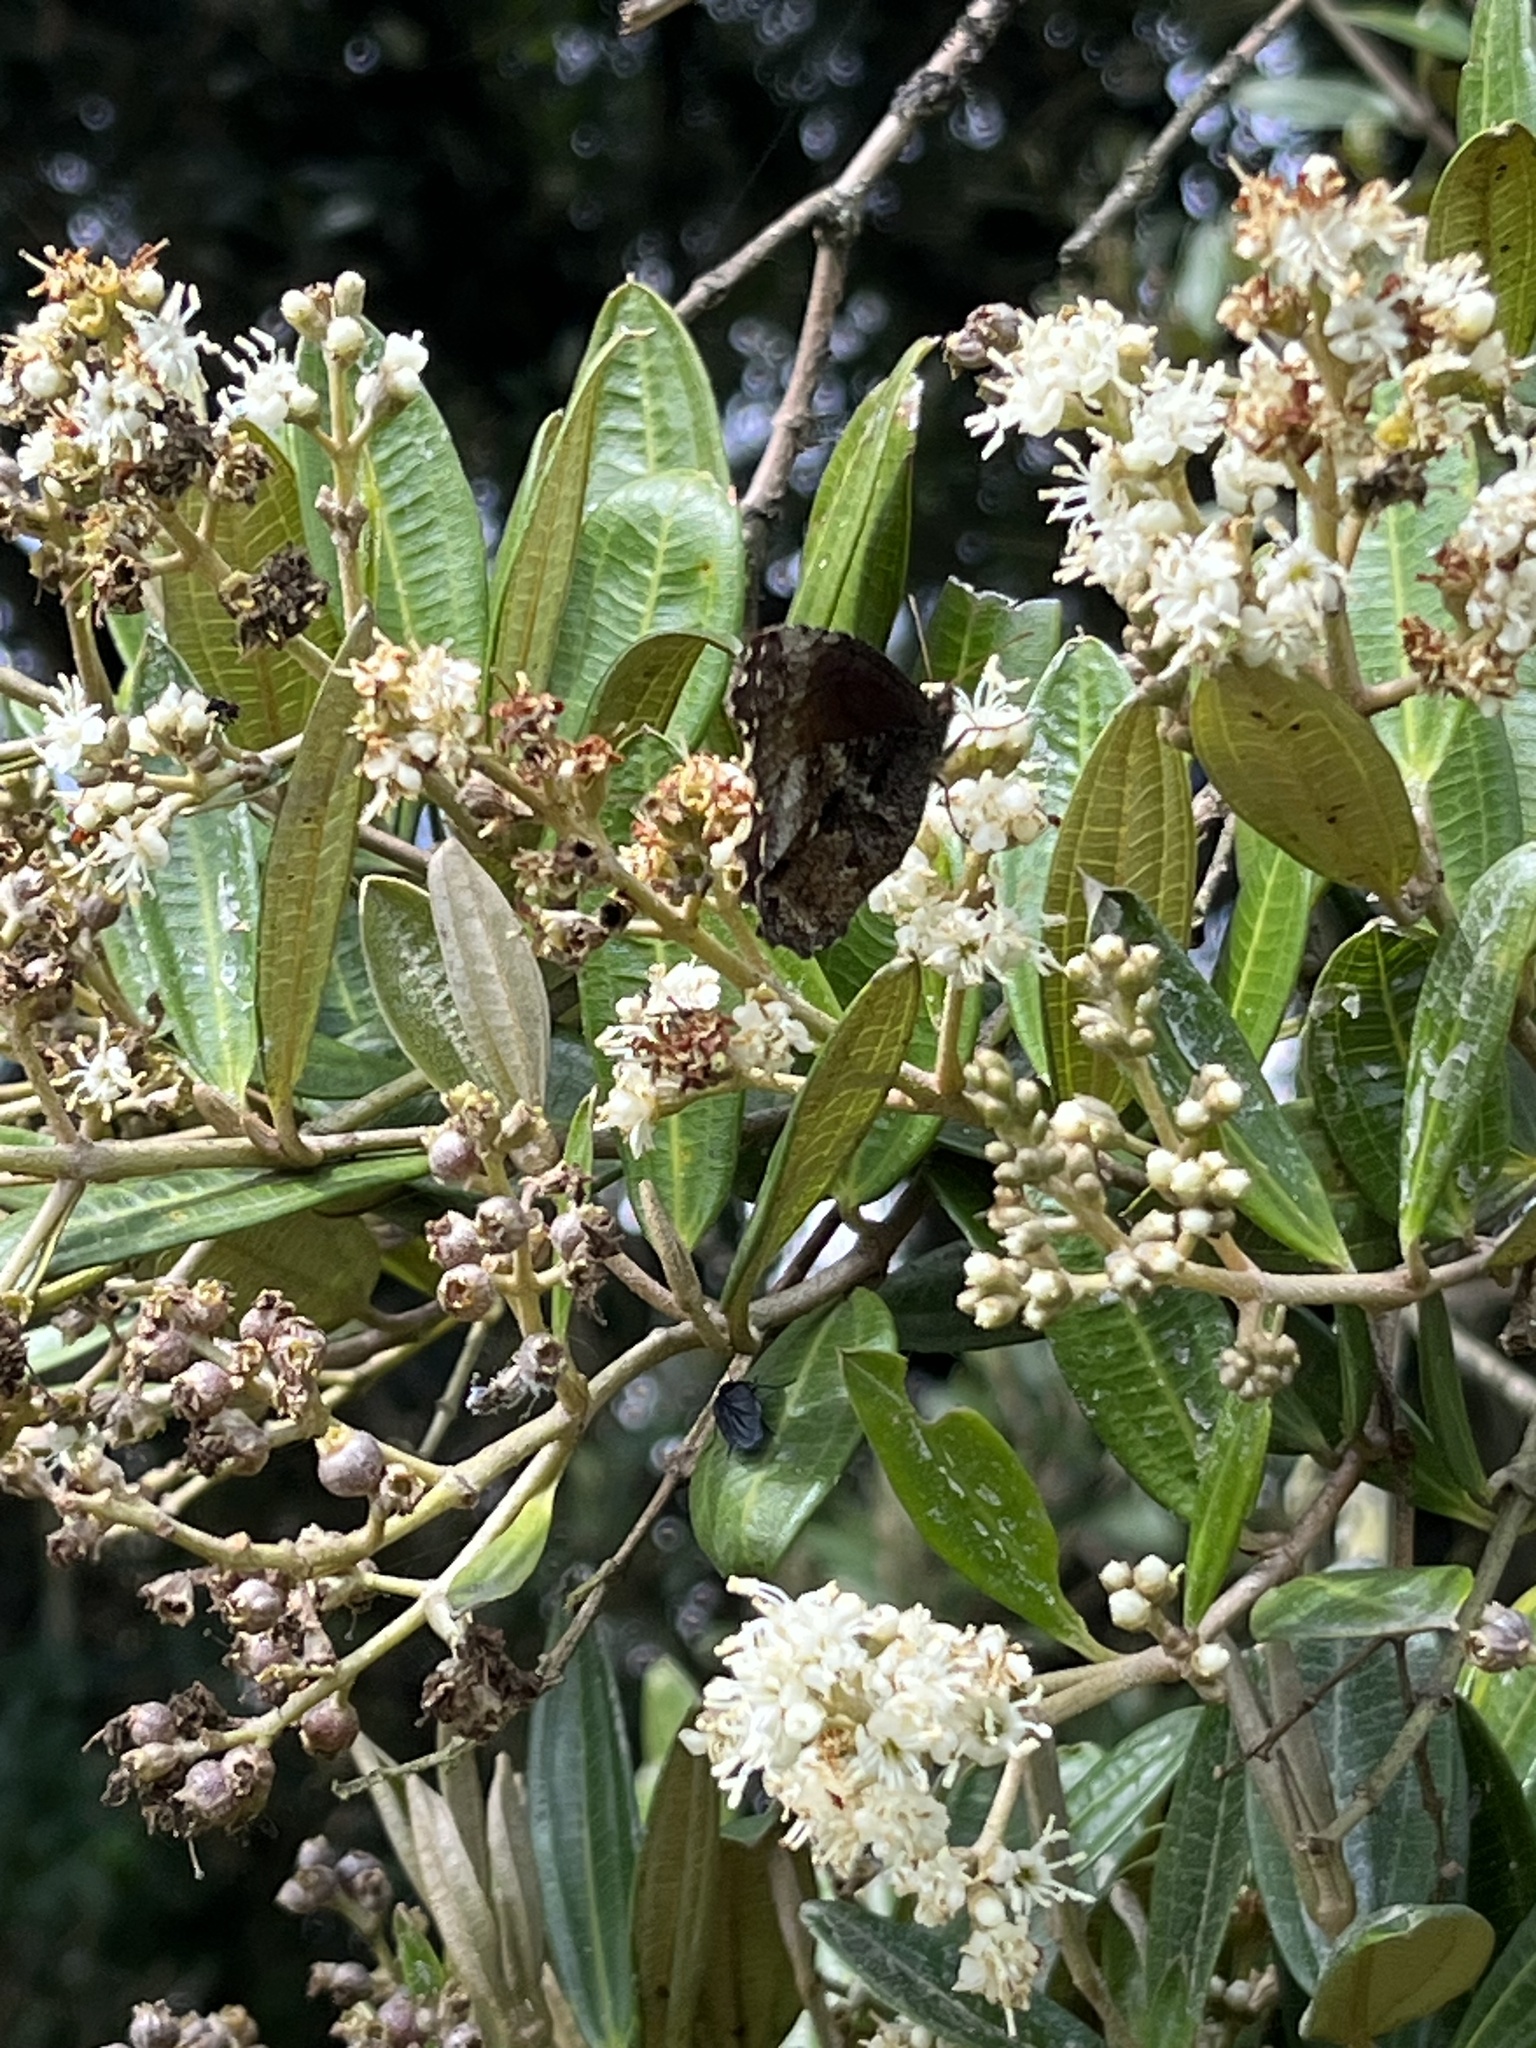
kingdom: Plantae
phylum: Tracheophyta
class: Magnoliopsida
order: Myrtales
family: Melastomataceae
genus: Miconia
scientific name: Miconia squamulosa
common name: Squamulose maya
